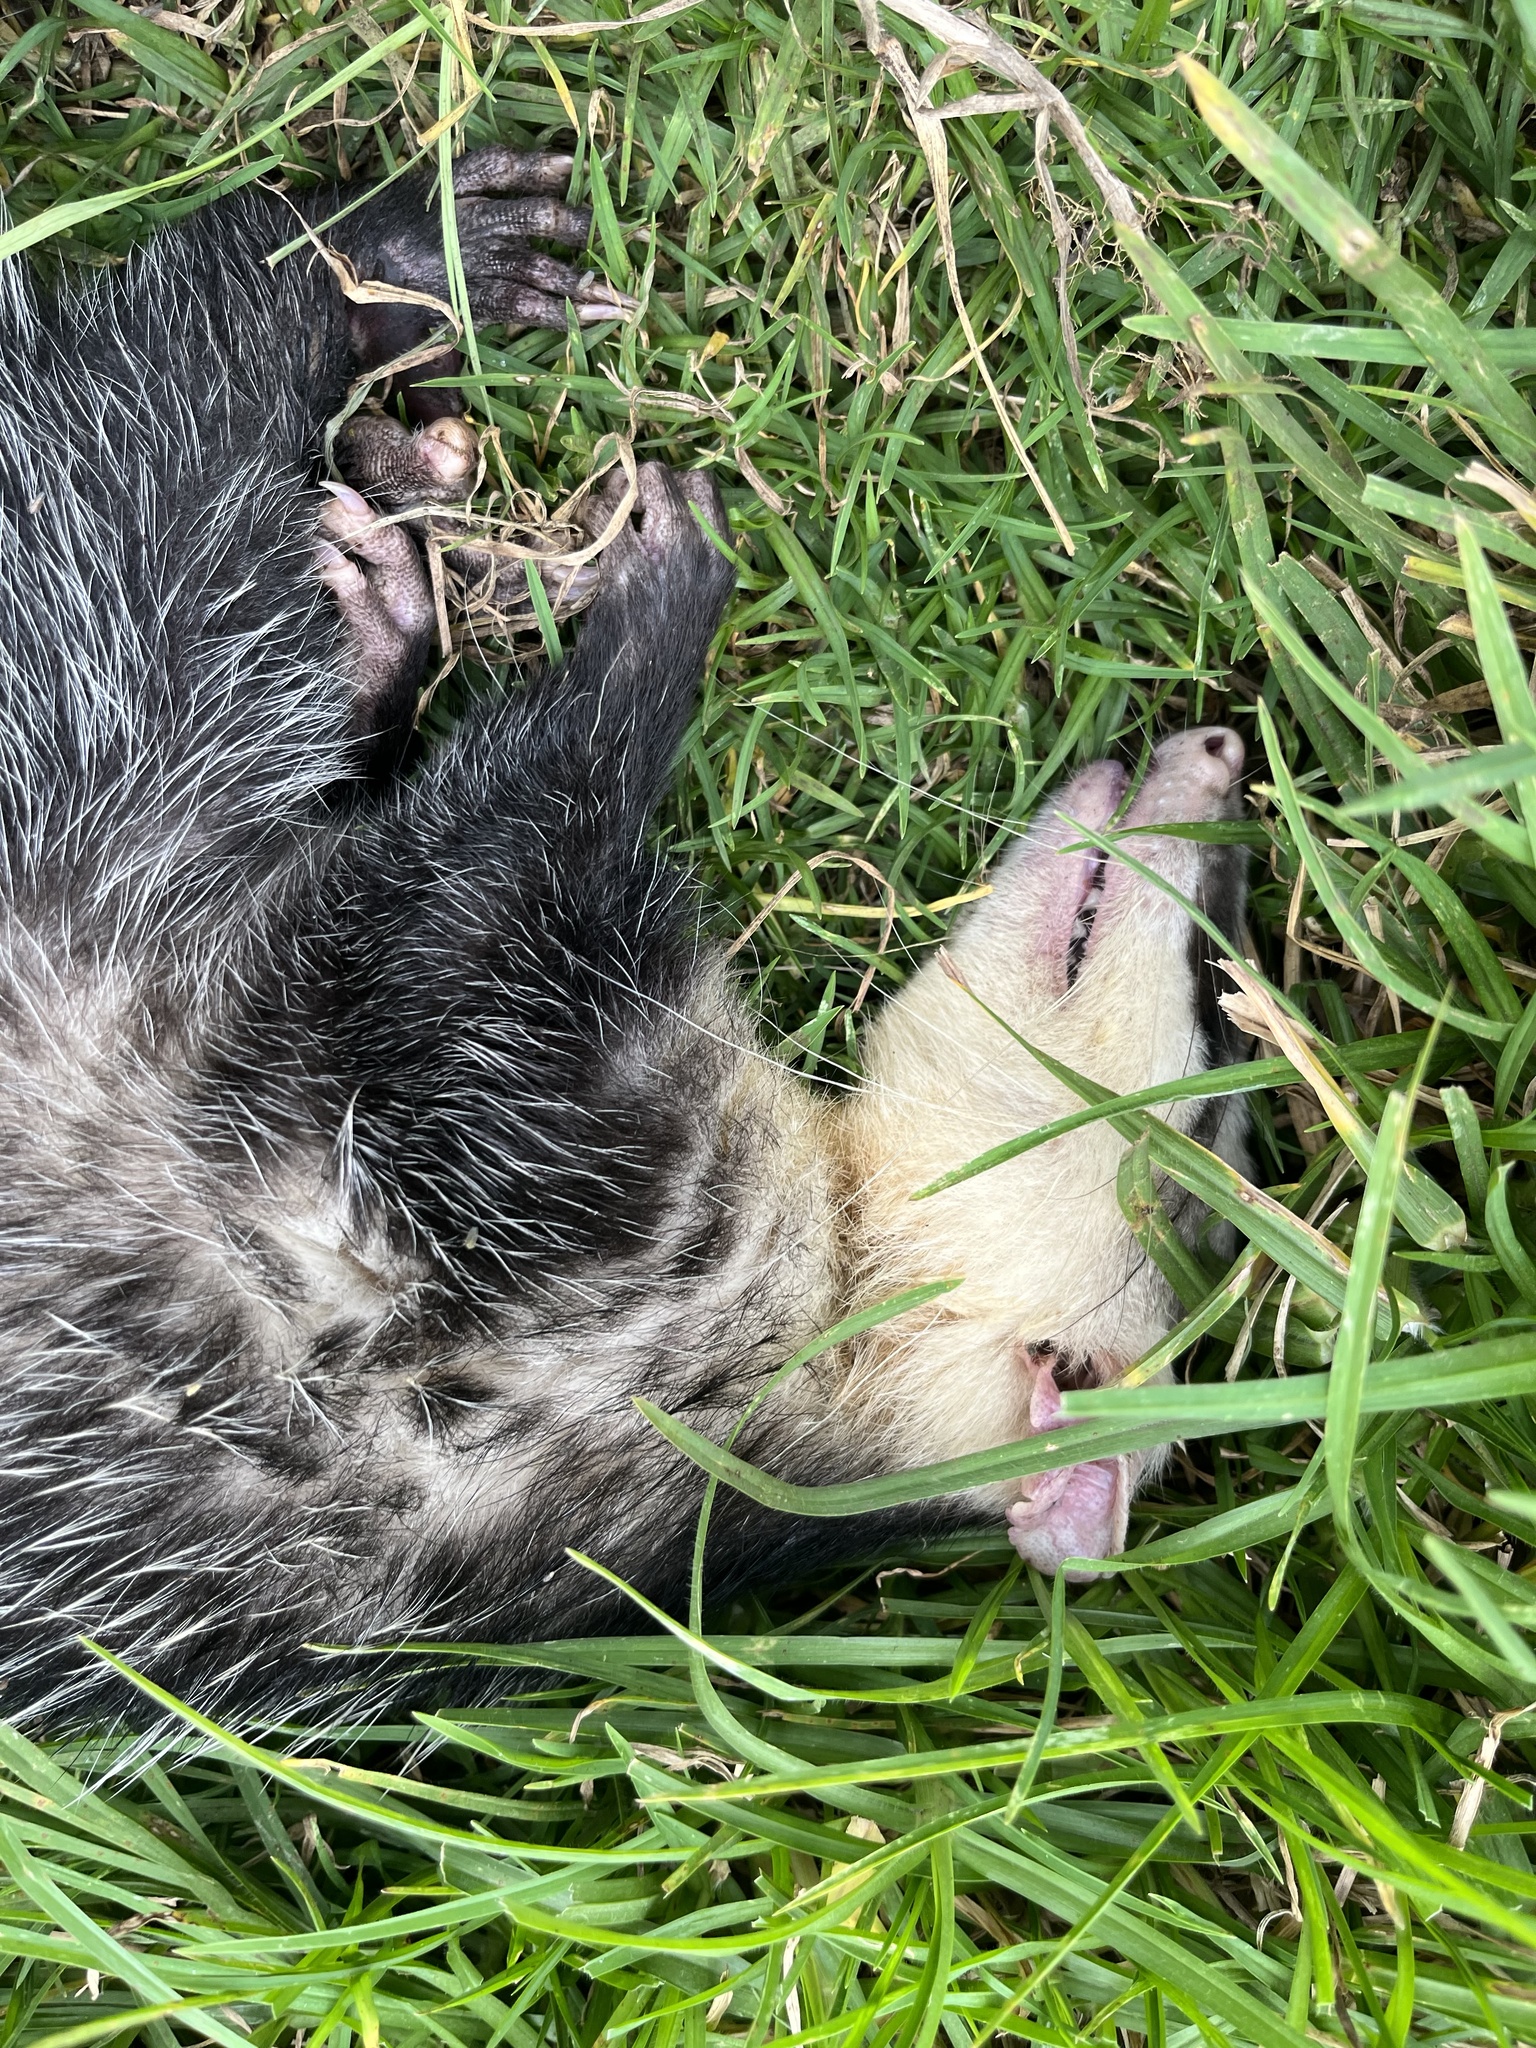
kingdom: Animalia
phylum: Chordata
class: Mammalia
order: Didelphimorphia
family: Didelphidae
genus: Didelphis
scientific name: Didelphis pernigra
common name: Andean white-eared opossum
